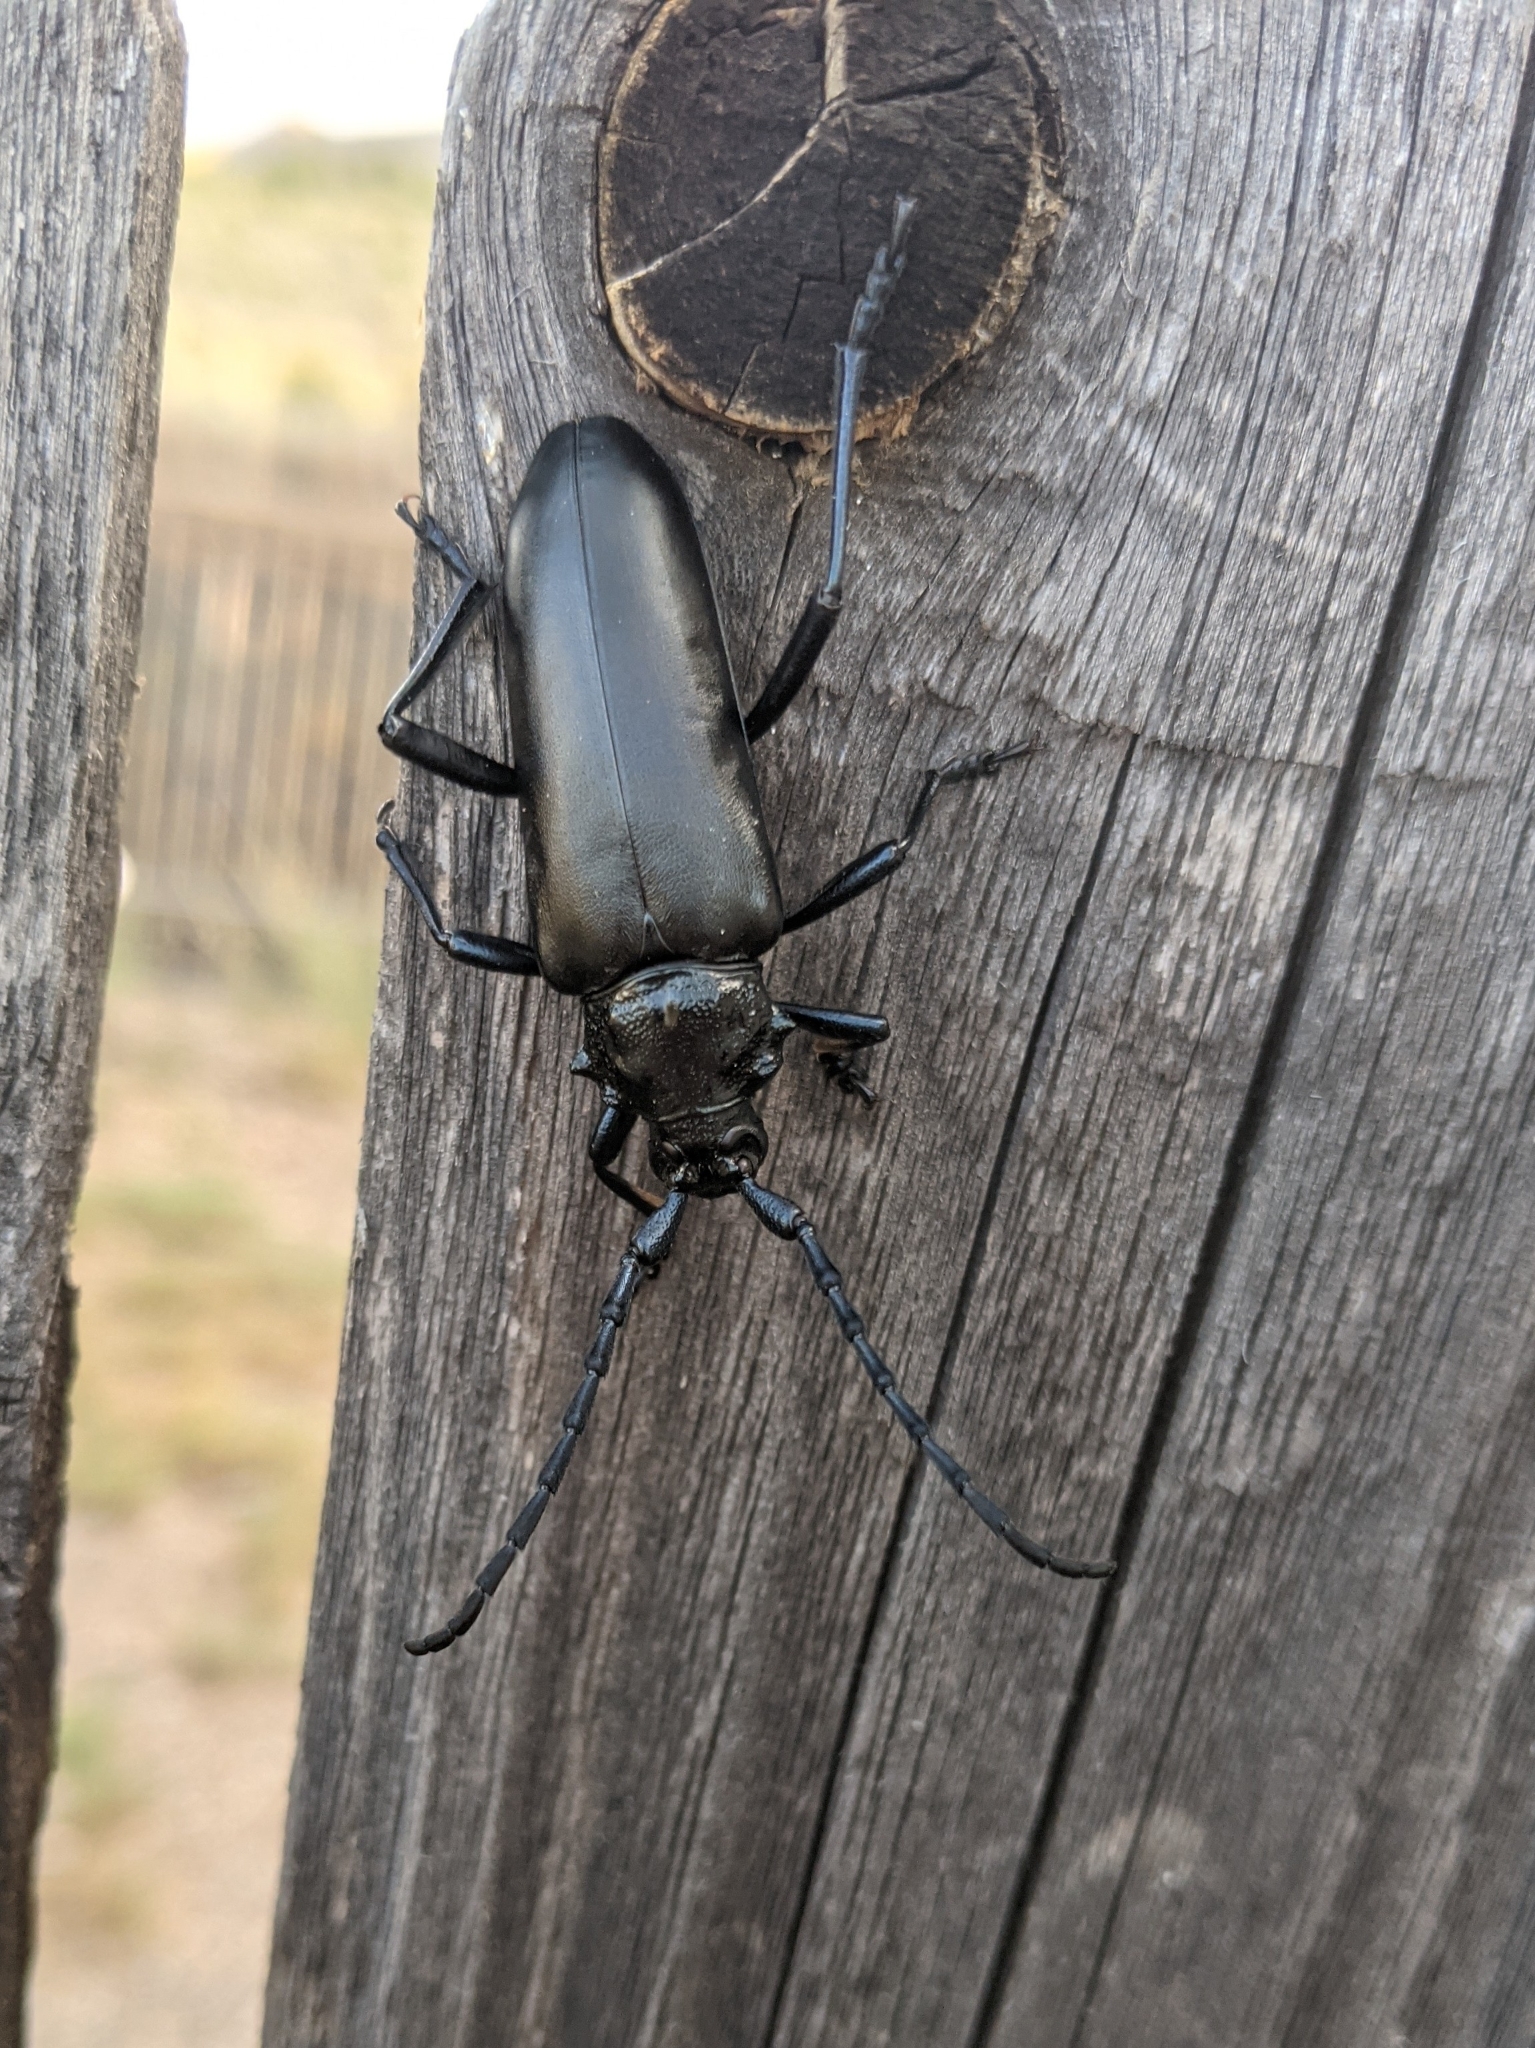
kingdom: Animalia
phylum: Arthropoda
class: Insecta
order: Coleoptera
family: Cerambycidae
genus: Stenaspis
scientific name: Stenaspis solitaria
